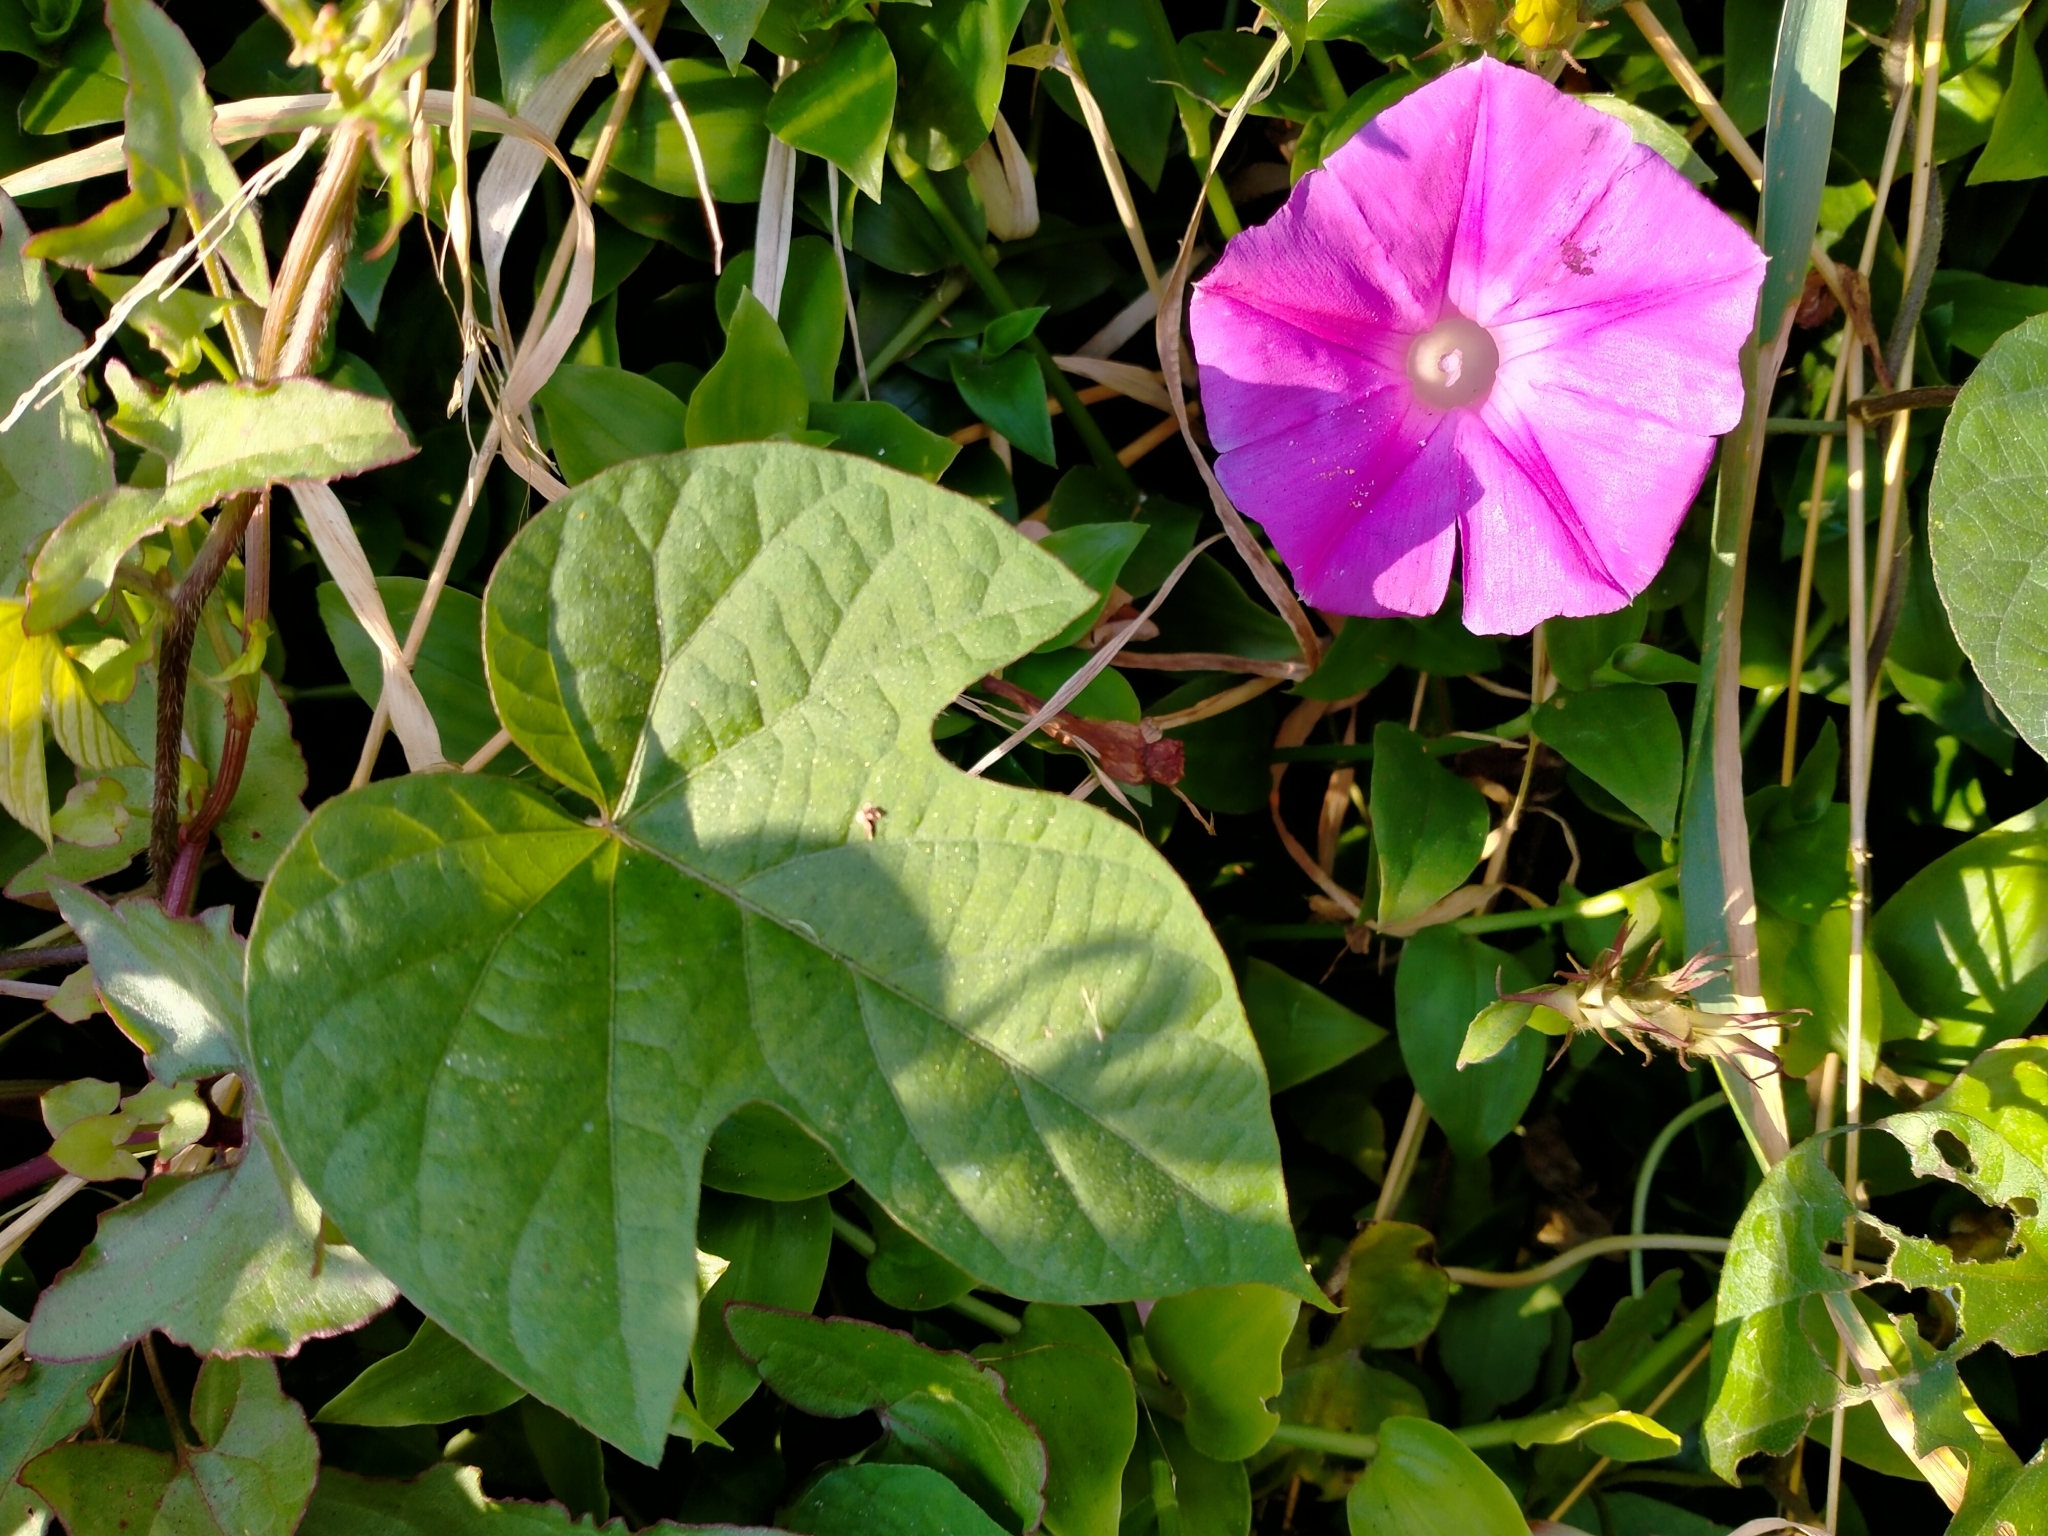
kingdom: Plantae
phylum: Tracheophyta
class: Magnoliopsida
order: Solanales
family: Convolvulaceae
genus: Ipomoea
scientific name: Ipomoea indica
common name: Blue dawnflower
